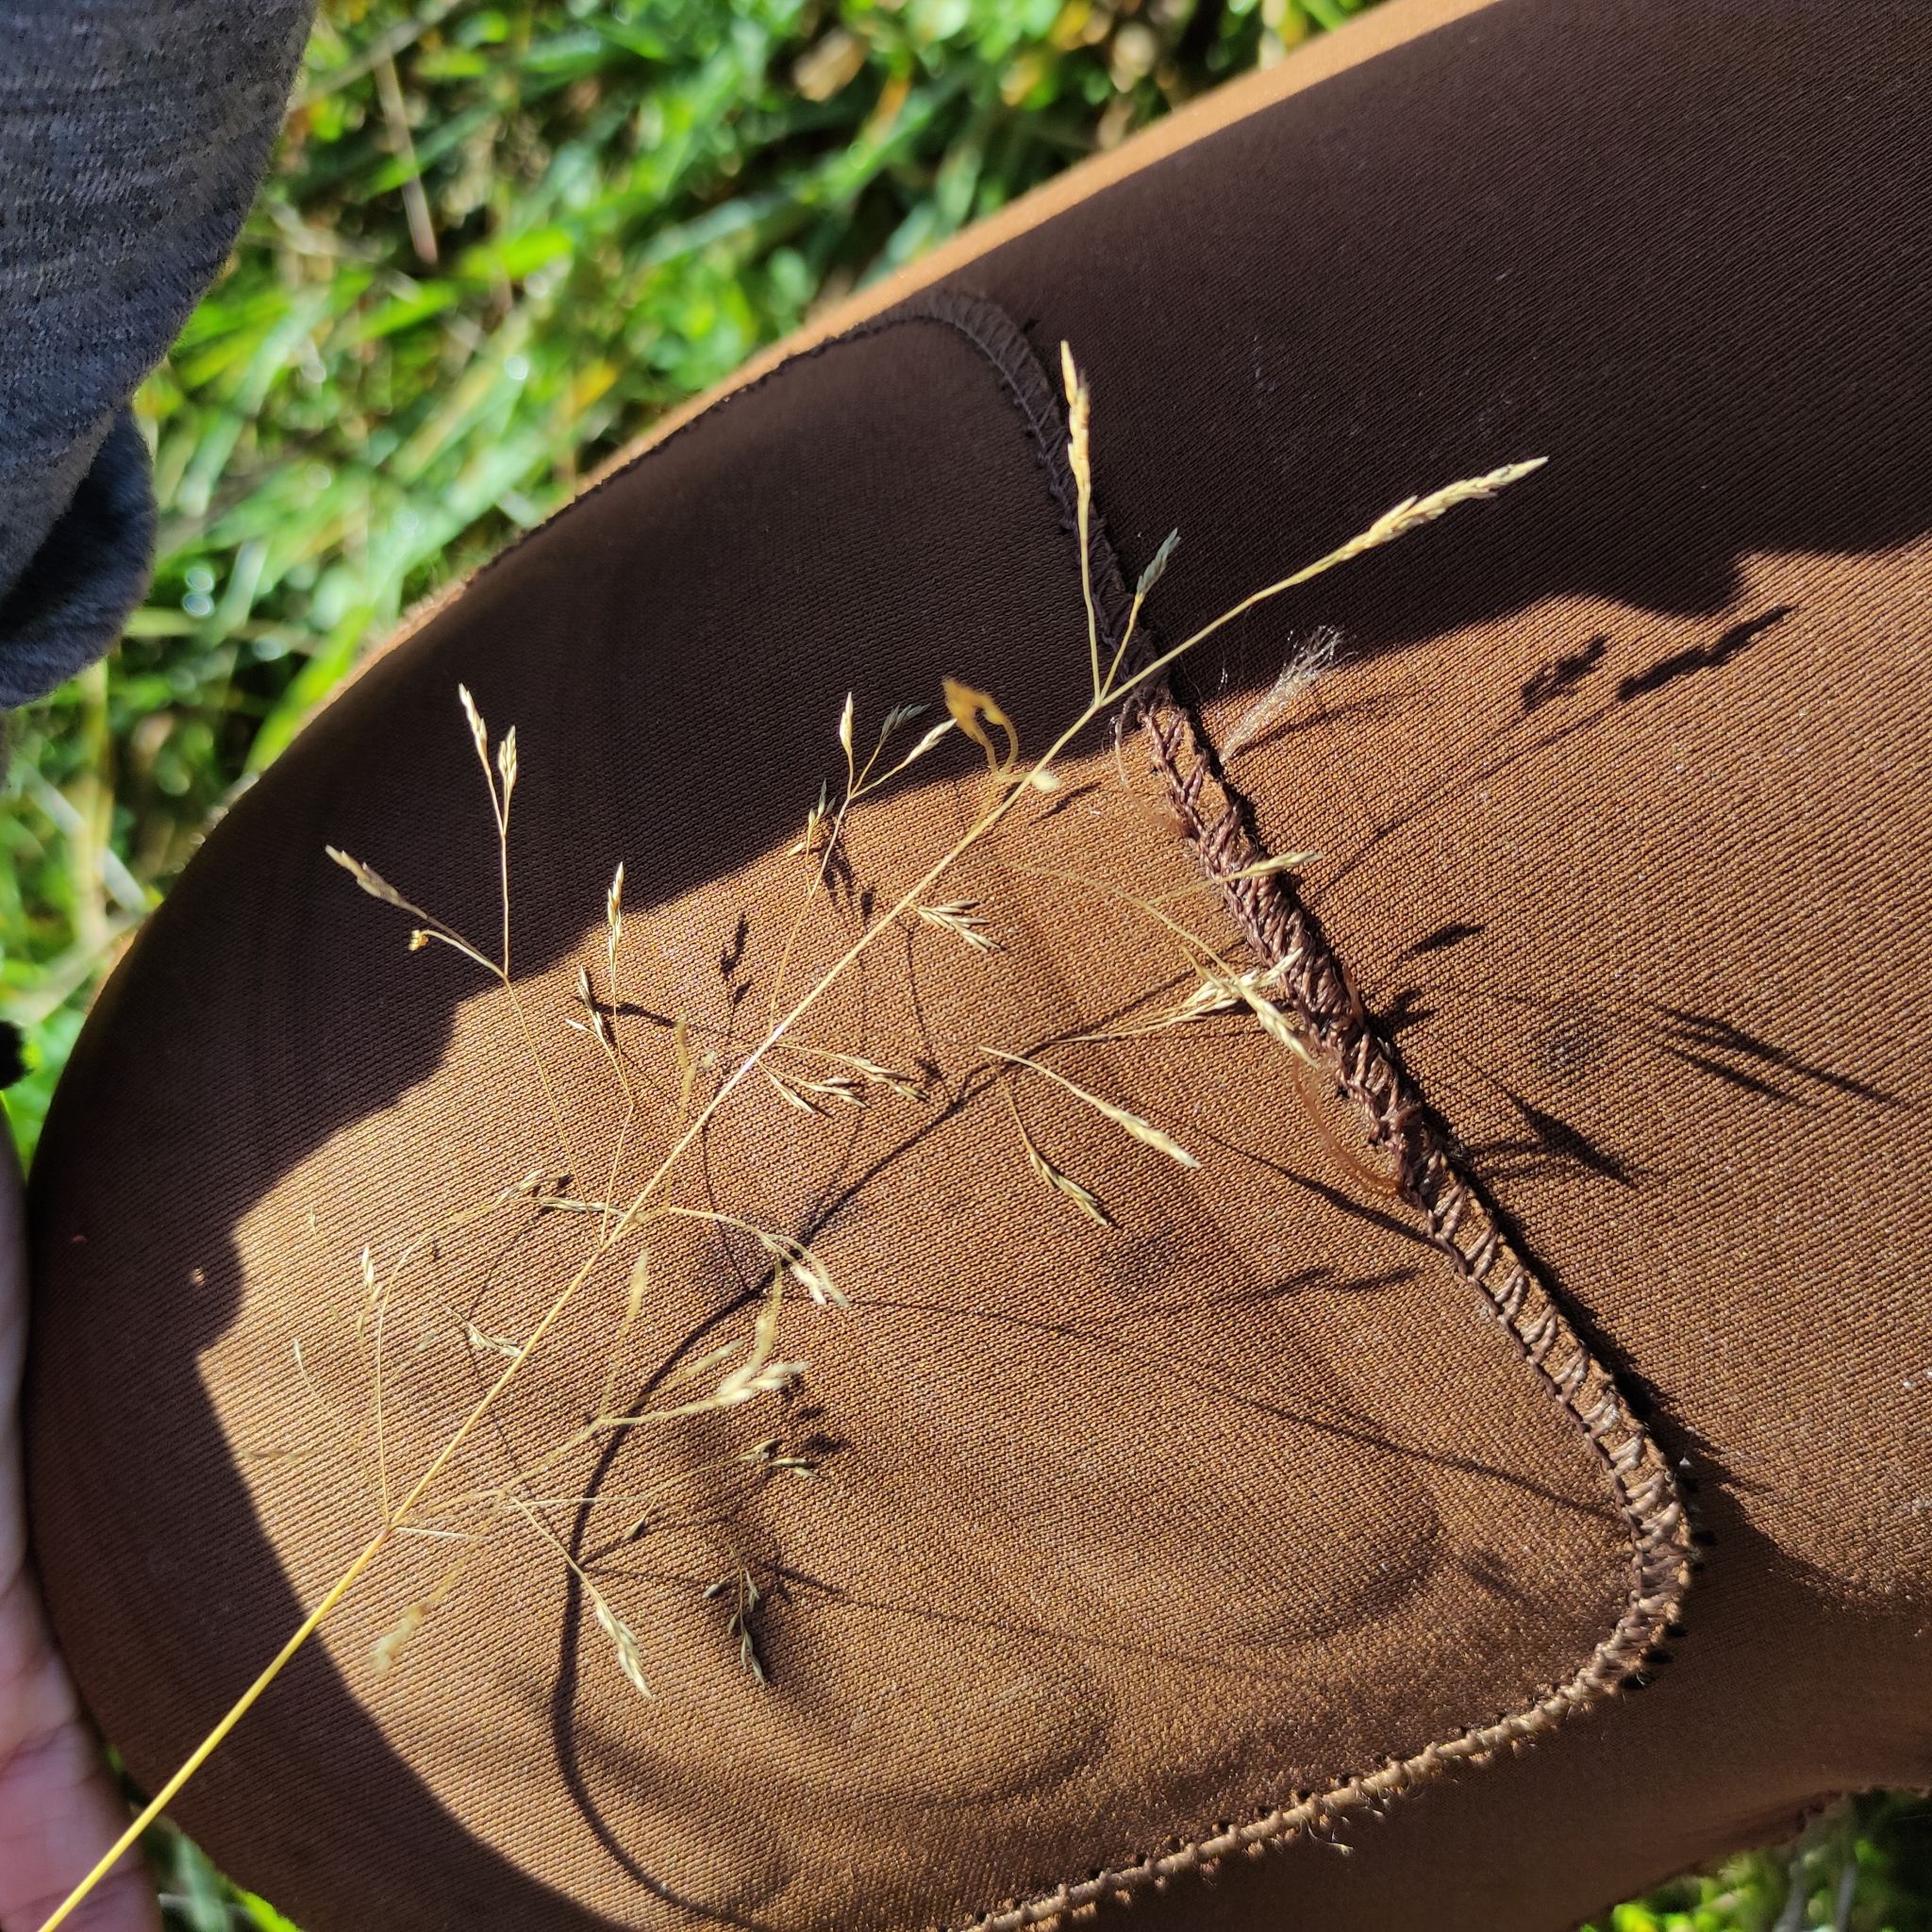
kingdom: Plantae
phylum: Tracheophyta
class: Liliopsida
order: Poales
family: Poaceae
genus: Agrostis
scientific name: Agrostis capillaris
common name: Colonial bentgrass
